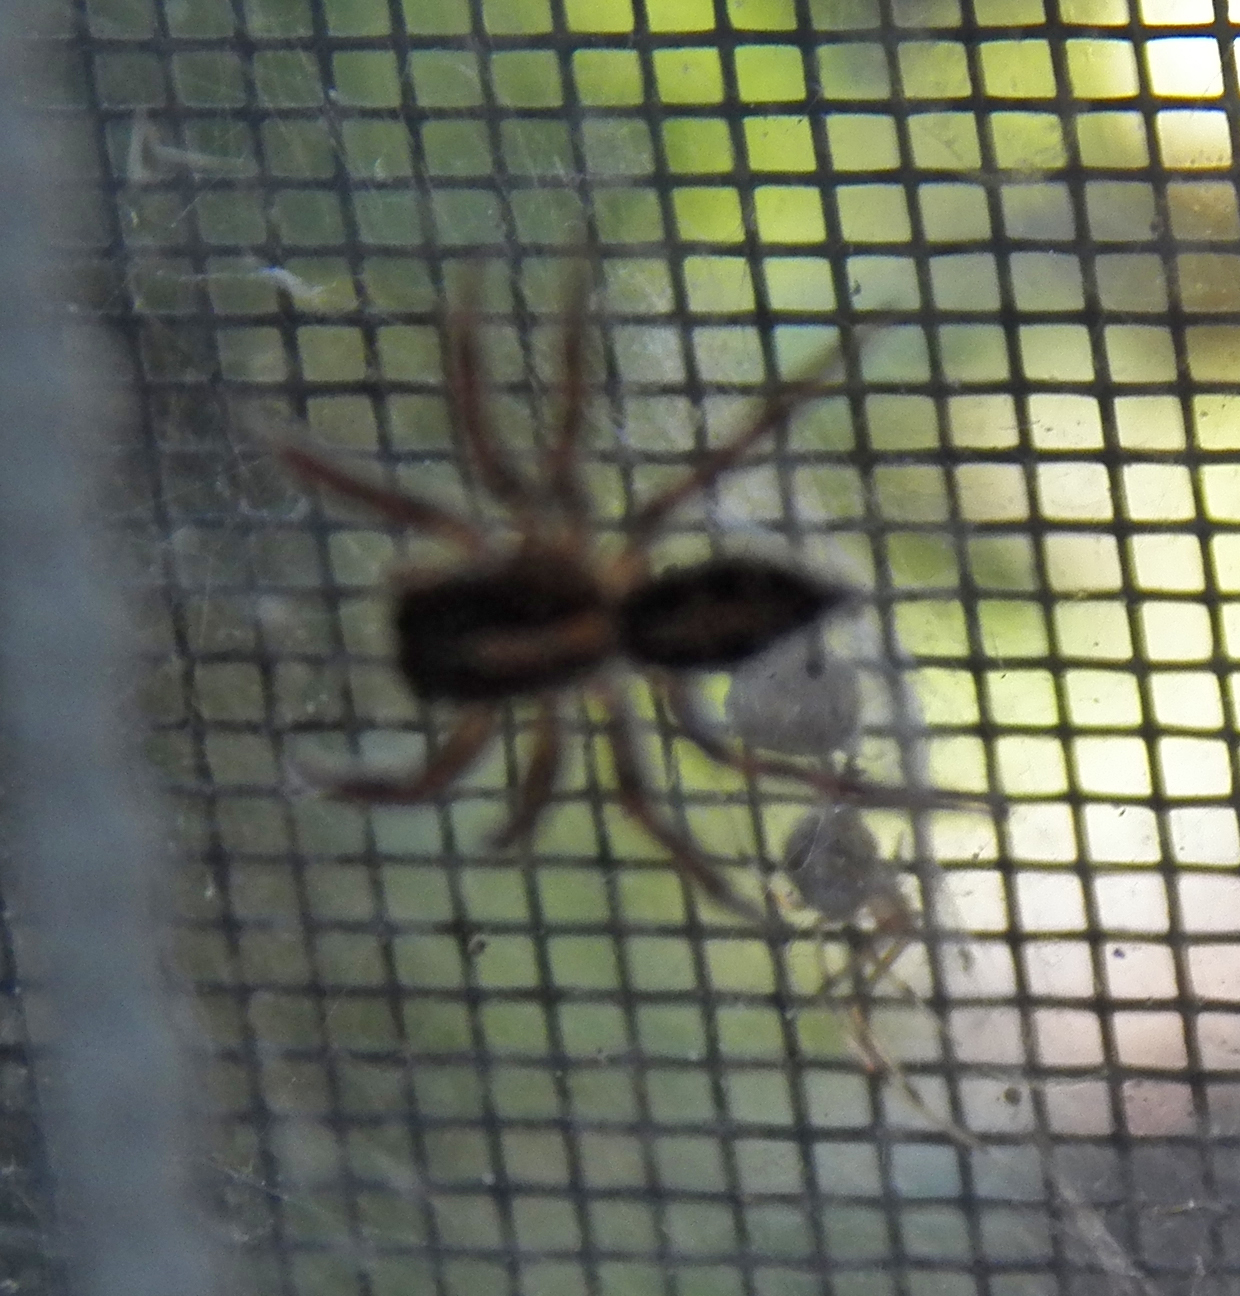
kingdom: Animalia
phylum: Arthropoda
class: Arachnida
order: Araneae
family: Salticidae
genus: Plexippus
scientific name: Plexippus paykulli
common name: Pantropical jumper
